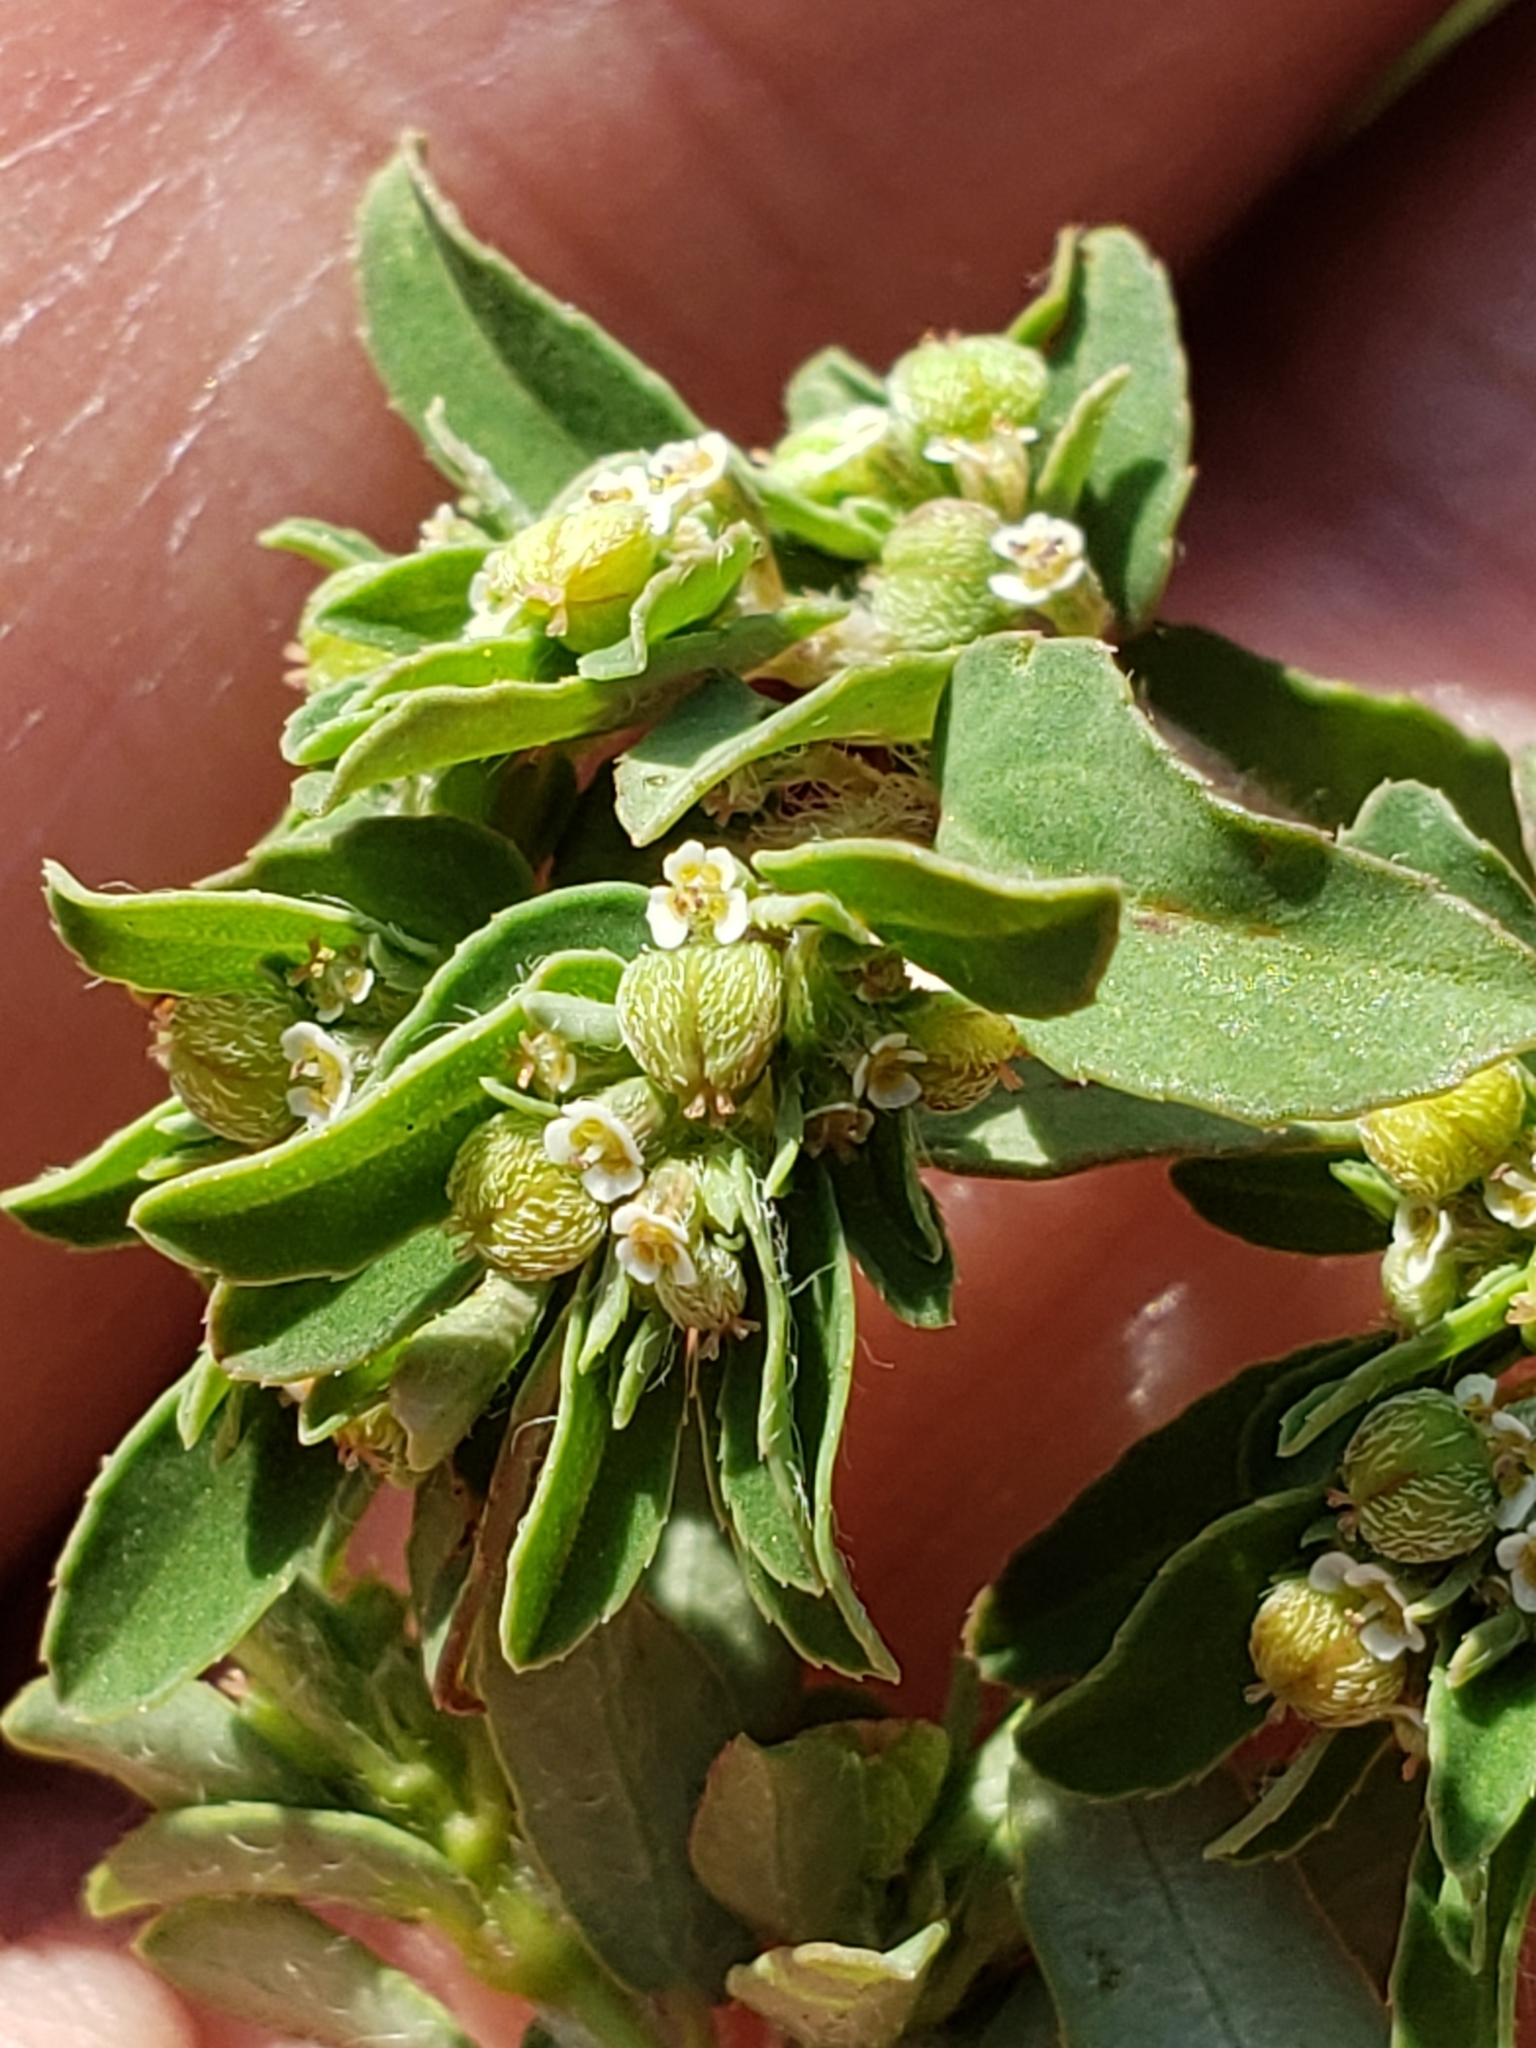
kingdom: Plantae
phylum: Tracheophyta
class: Magnoliopsida
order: Malpighiales
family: Euphorbiaceae
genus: Euphorbia
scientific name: Euphorbia maculata
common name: Spotted spurge
